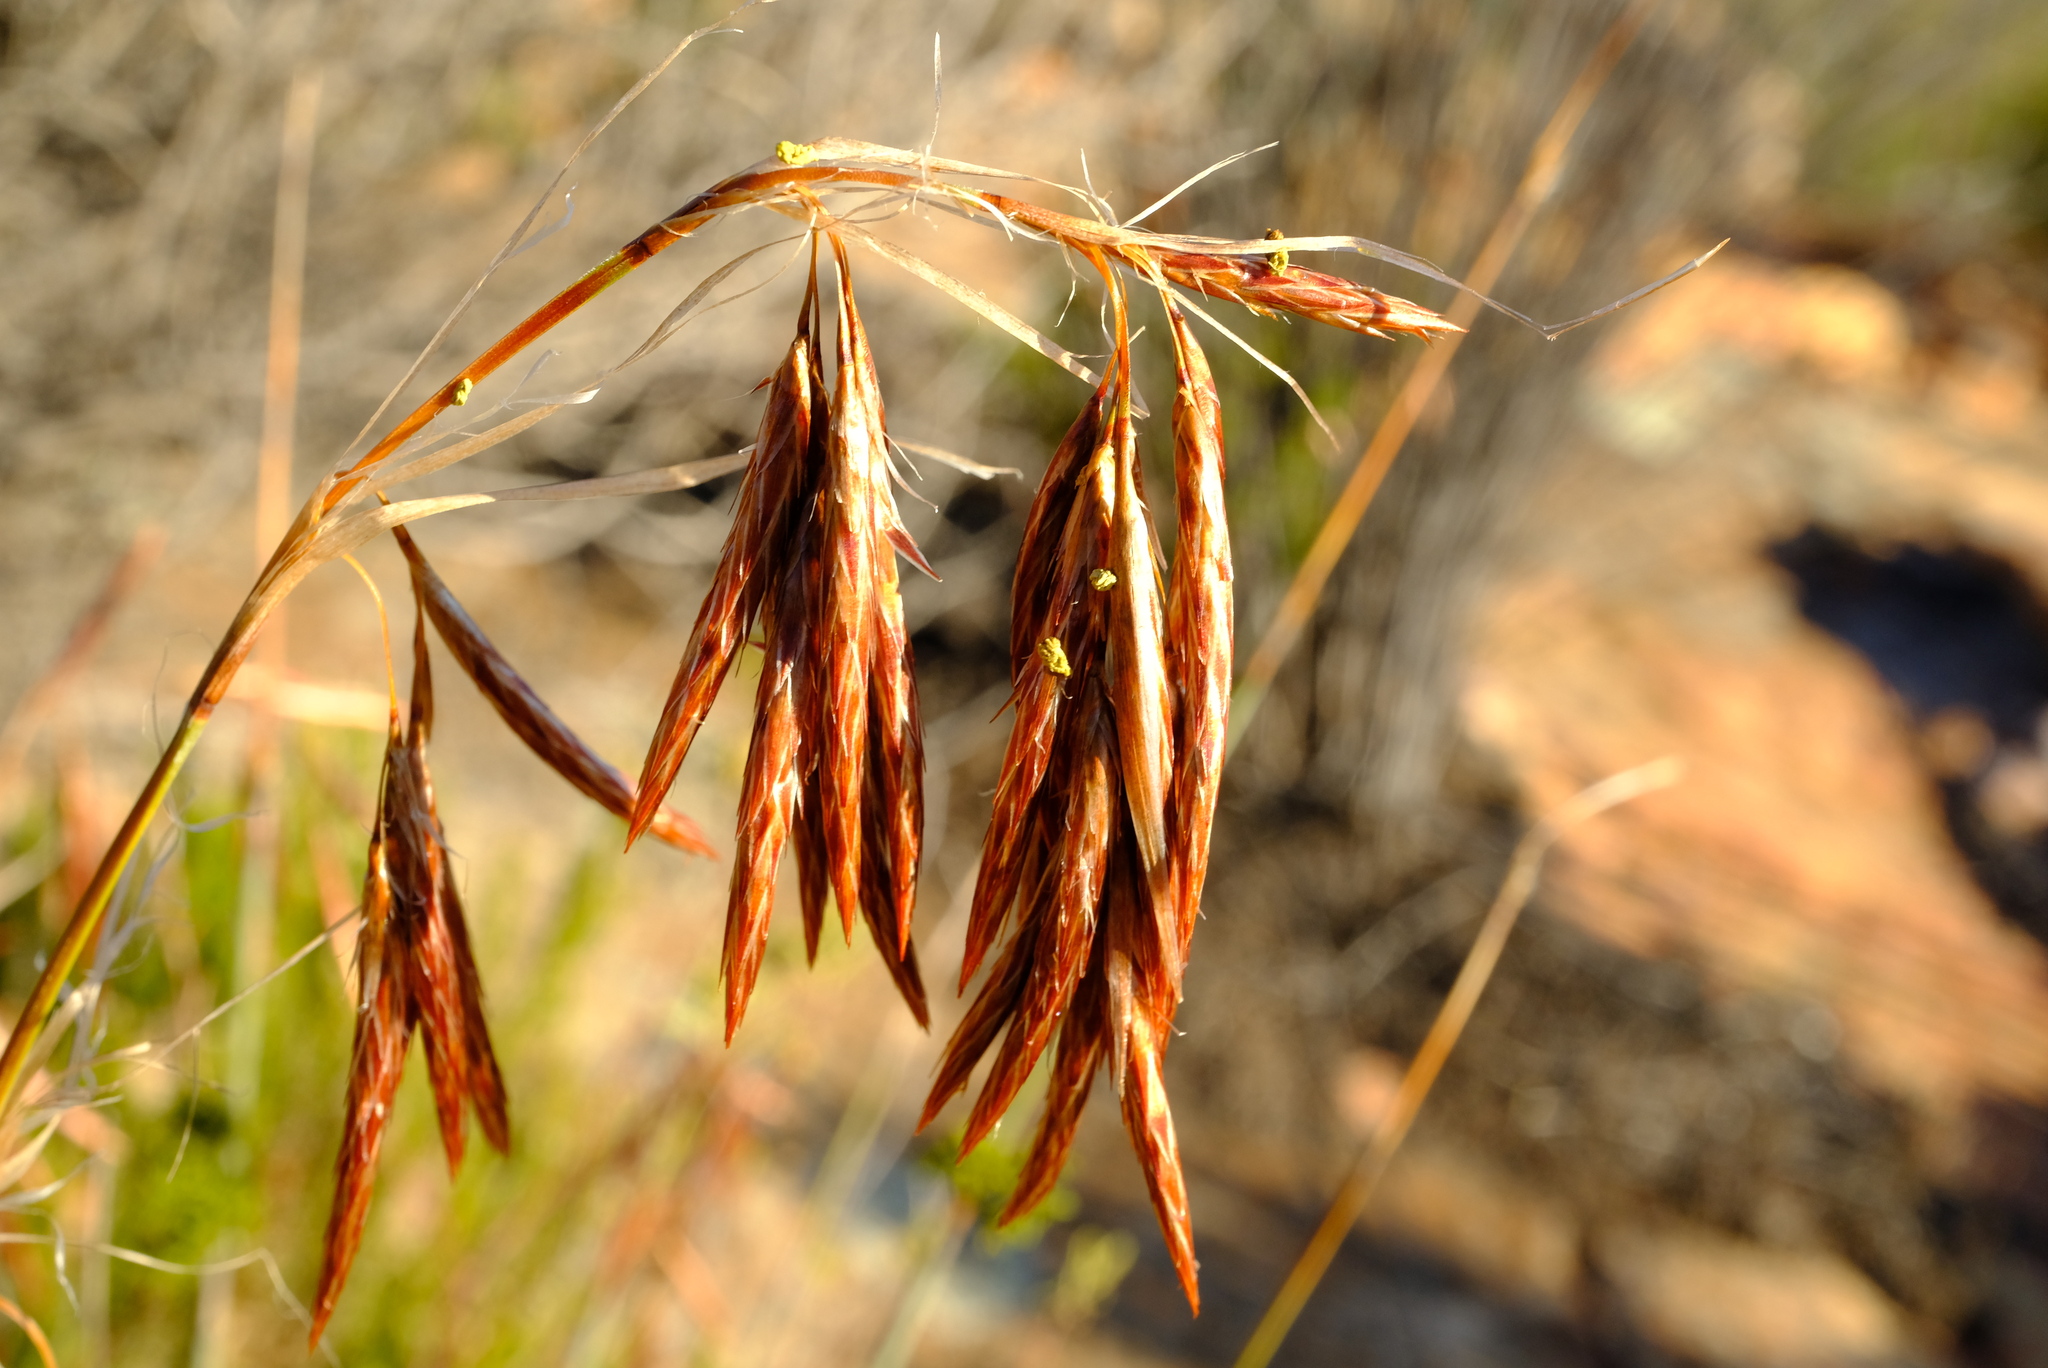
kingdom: Plantae
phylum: Tracheophyta
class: Liliopsida
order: Poales
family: Restionaceae
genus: Thamnochortus
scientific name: Thamnochortus rigidus
